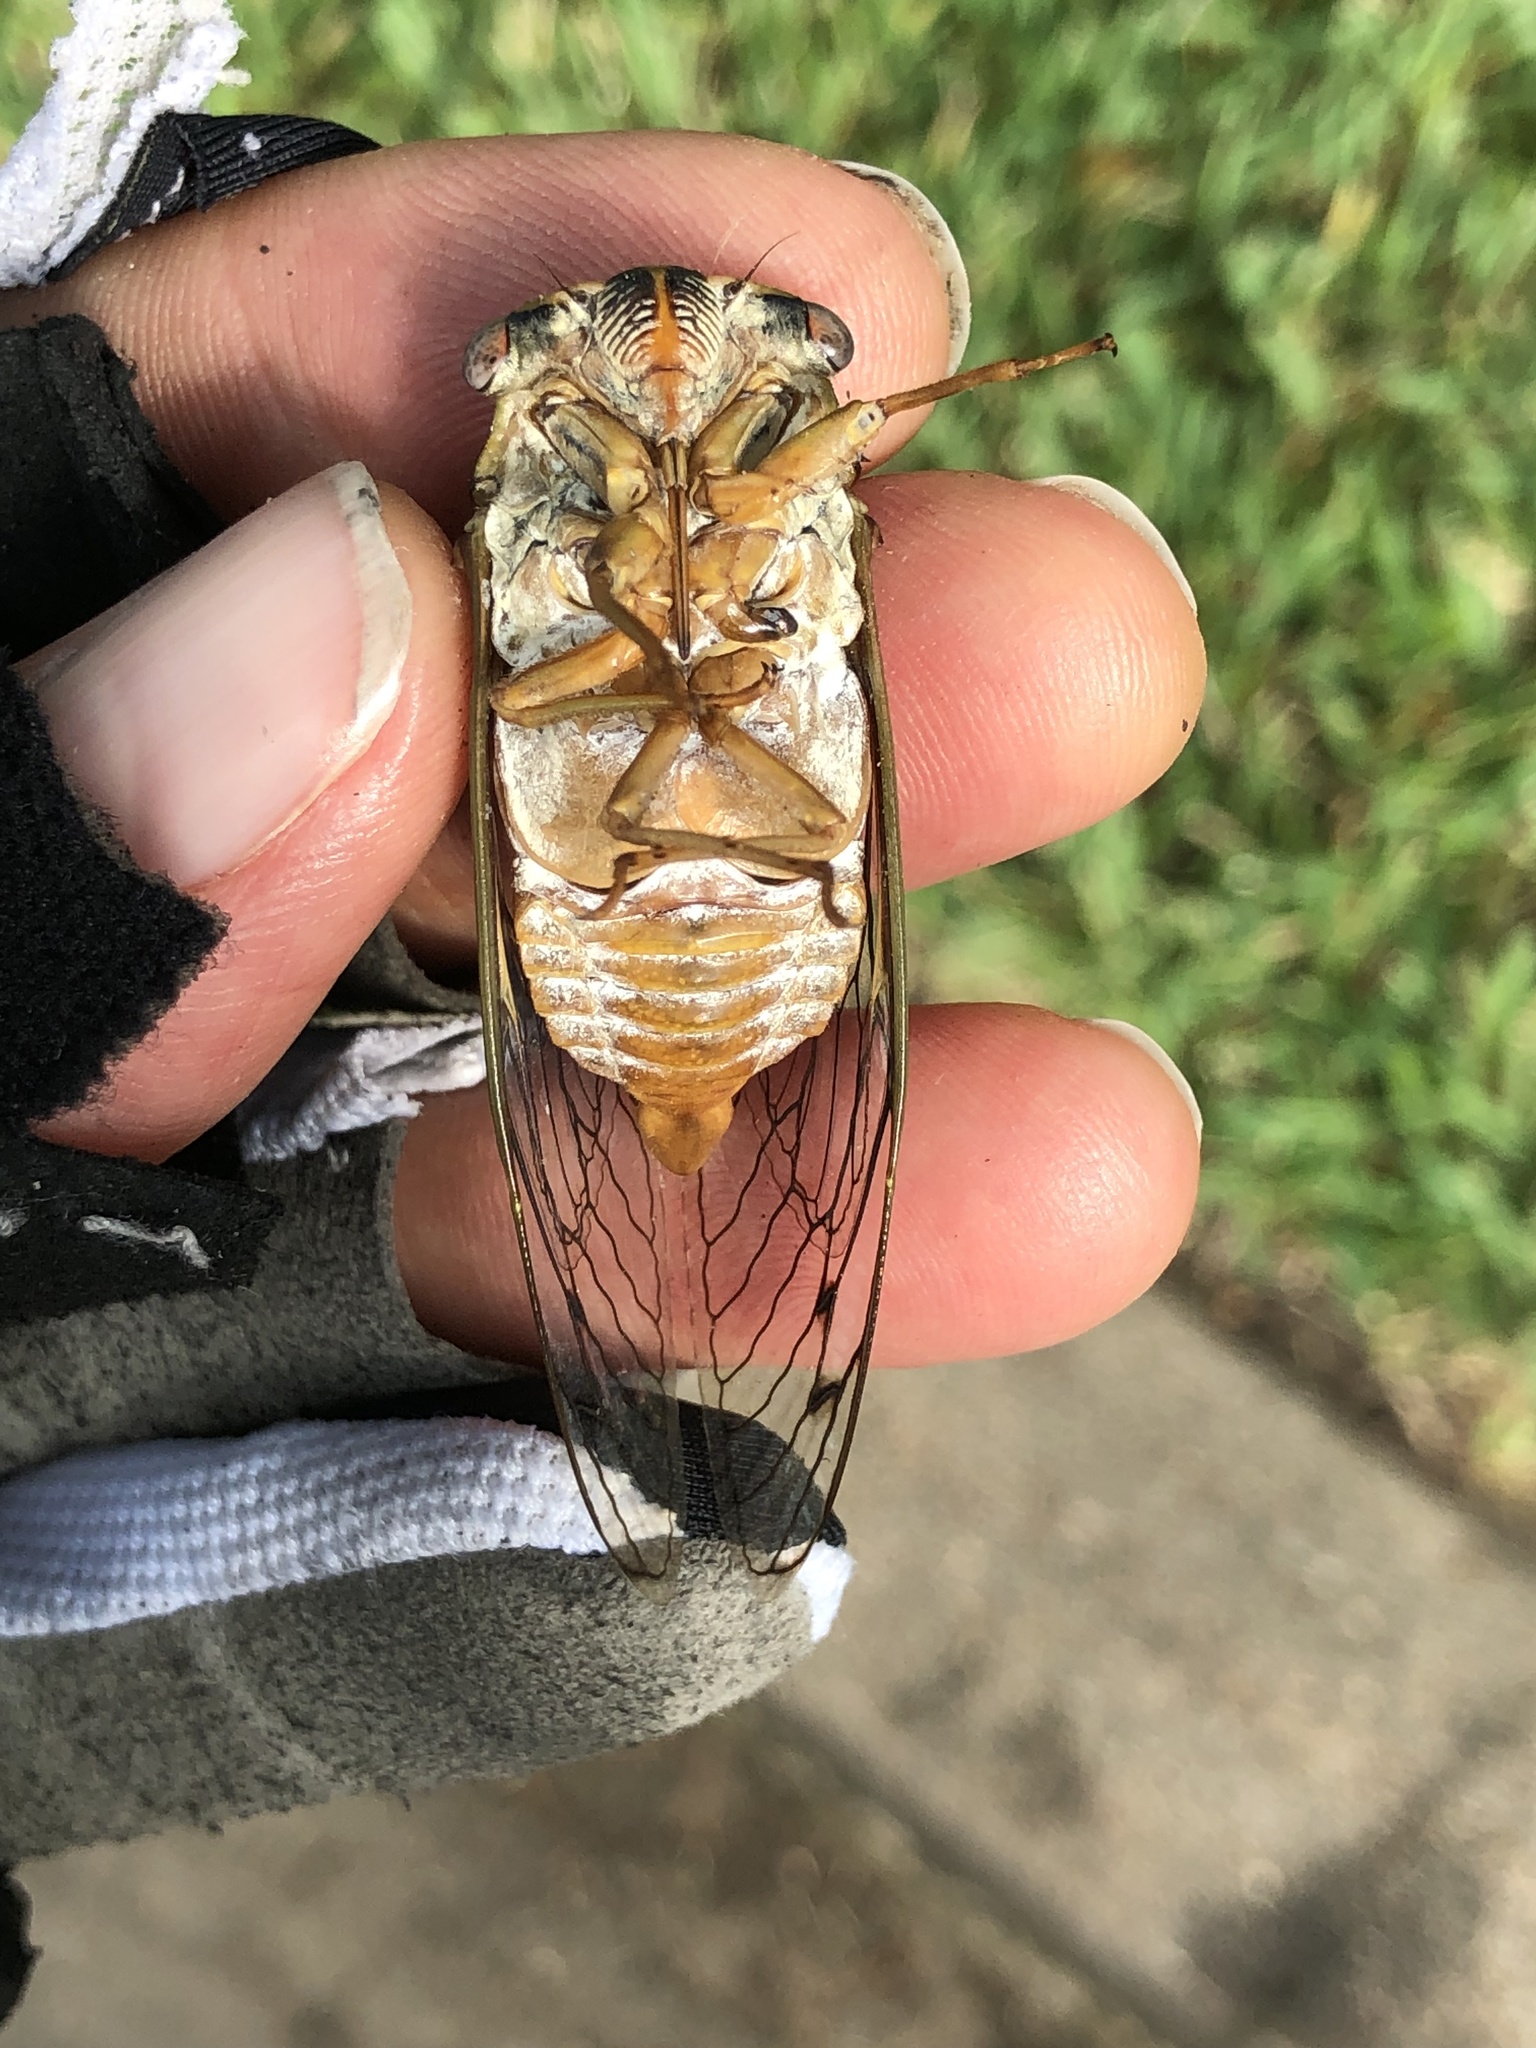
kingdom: Animalia
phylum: Arthropoda
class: Insecta
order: Hemiptera
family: Cicadidae
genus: Megatibicen
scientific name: Megatibicen resh
